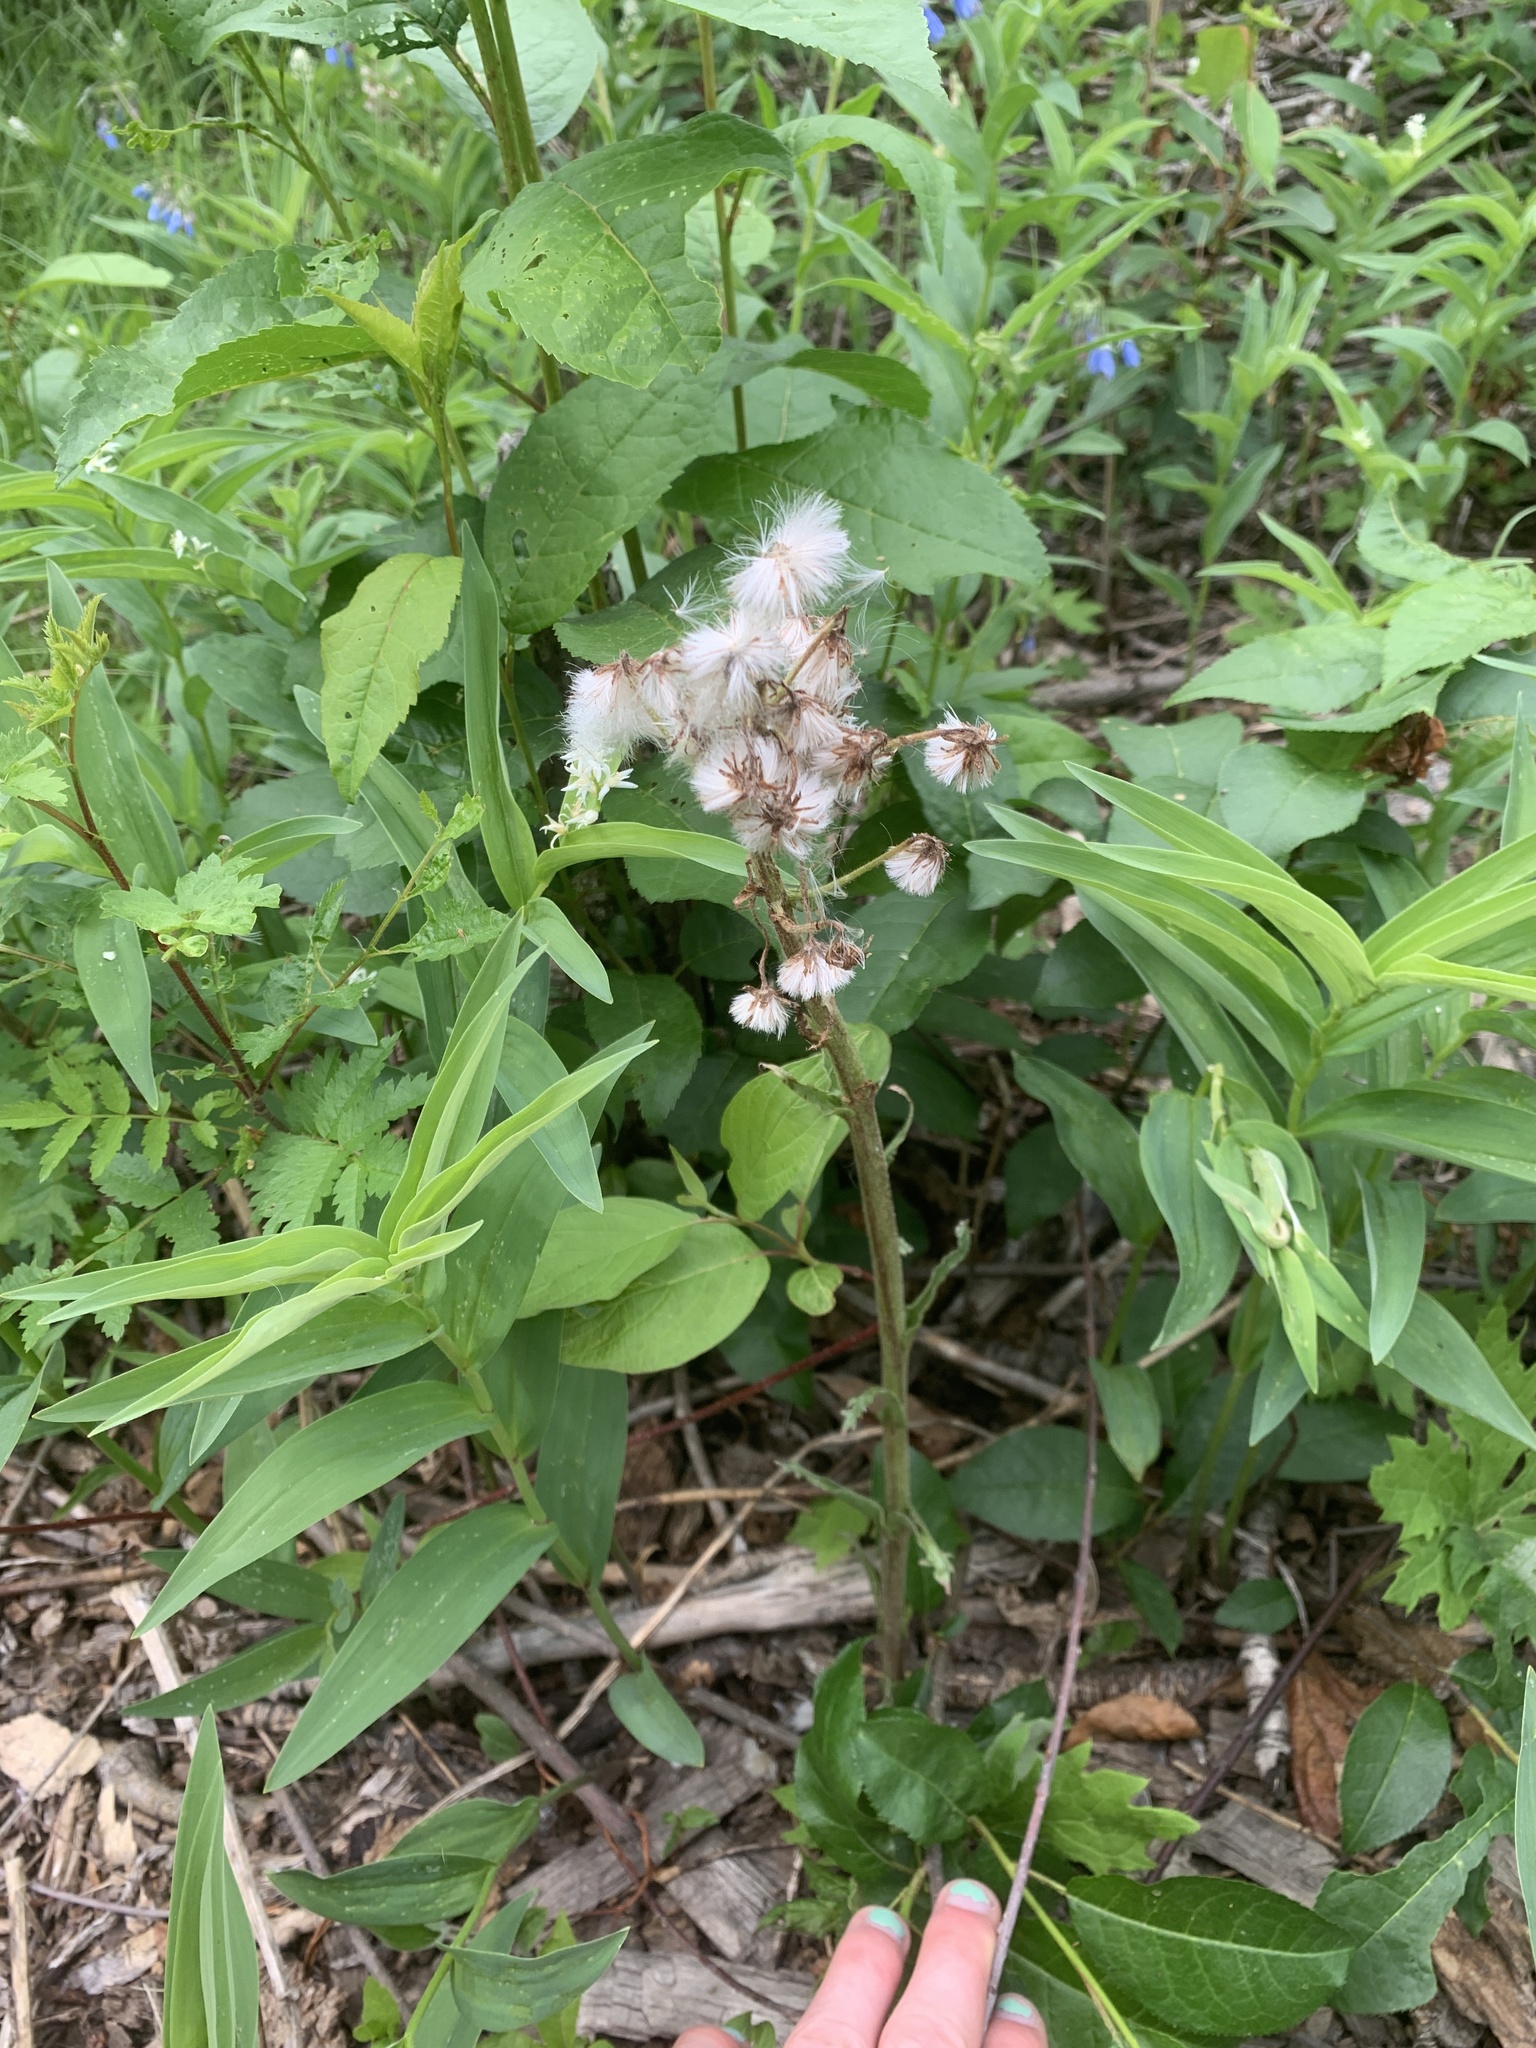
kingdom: Plantae
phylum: Tracheophyta
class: Magnoliopsida
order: Asterales
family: Asteraceae
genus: Petasites
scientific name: Petasites frigidus
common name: Arctic butterbur
